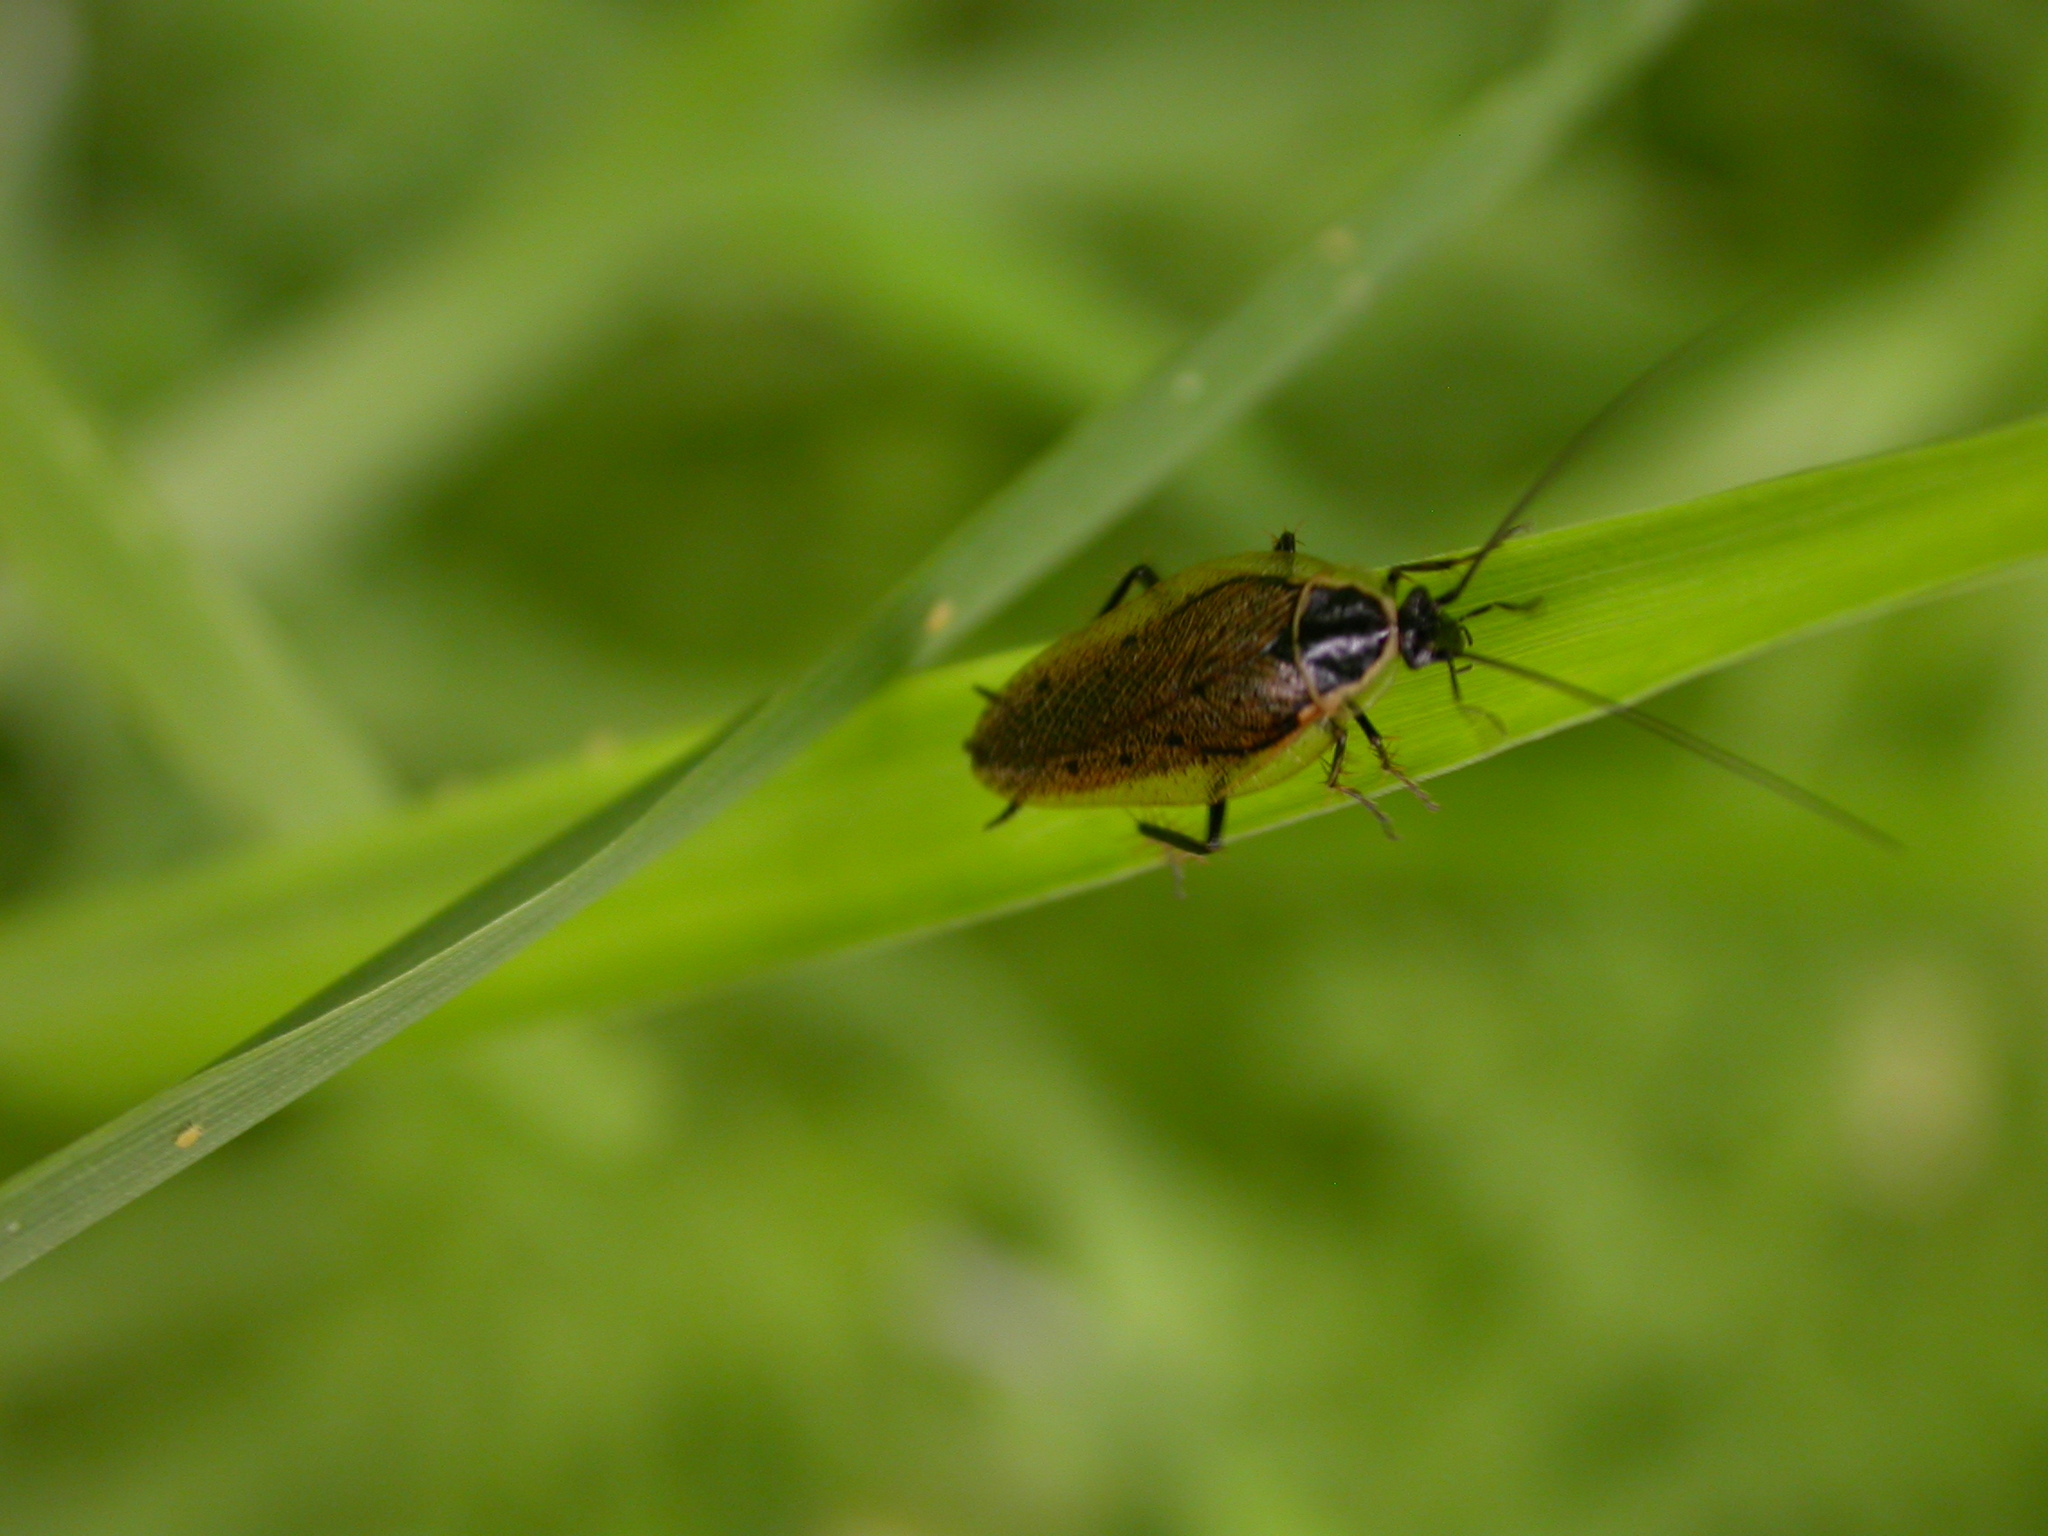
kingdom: Animalia
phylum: Arthropoda
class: Insecta
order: Blattodea
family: Ectobiidae
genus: Ectobius
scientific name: Ectobius sylvestris
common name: Forest cockroach
